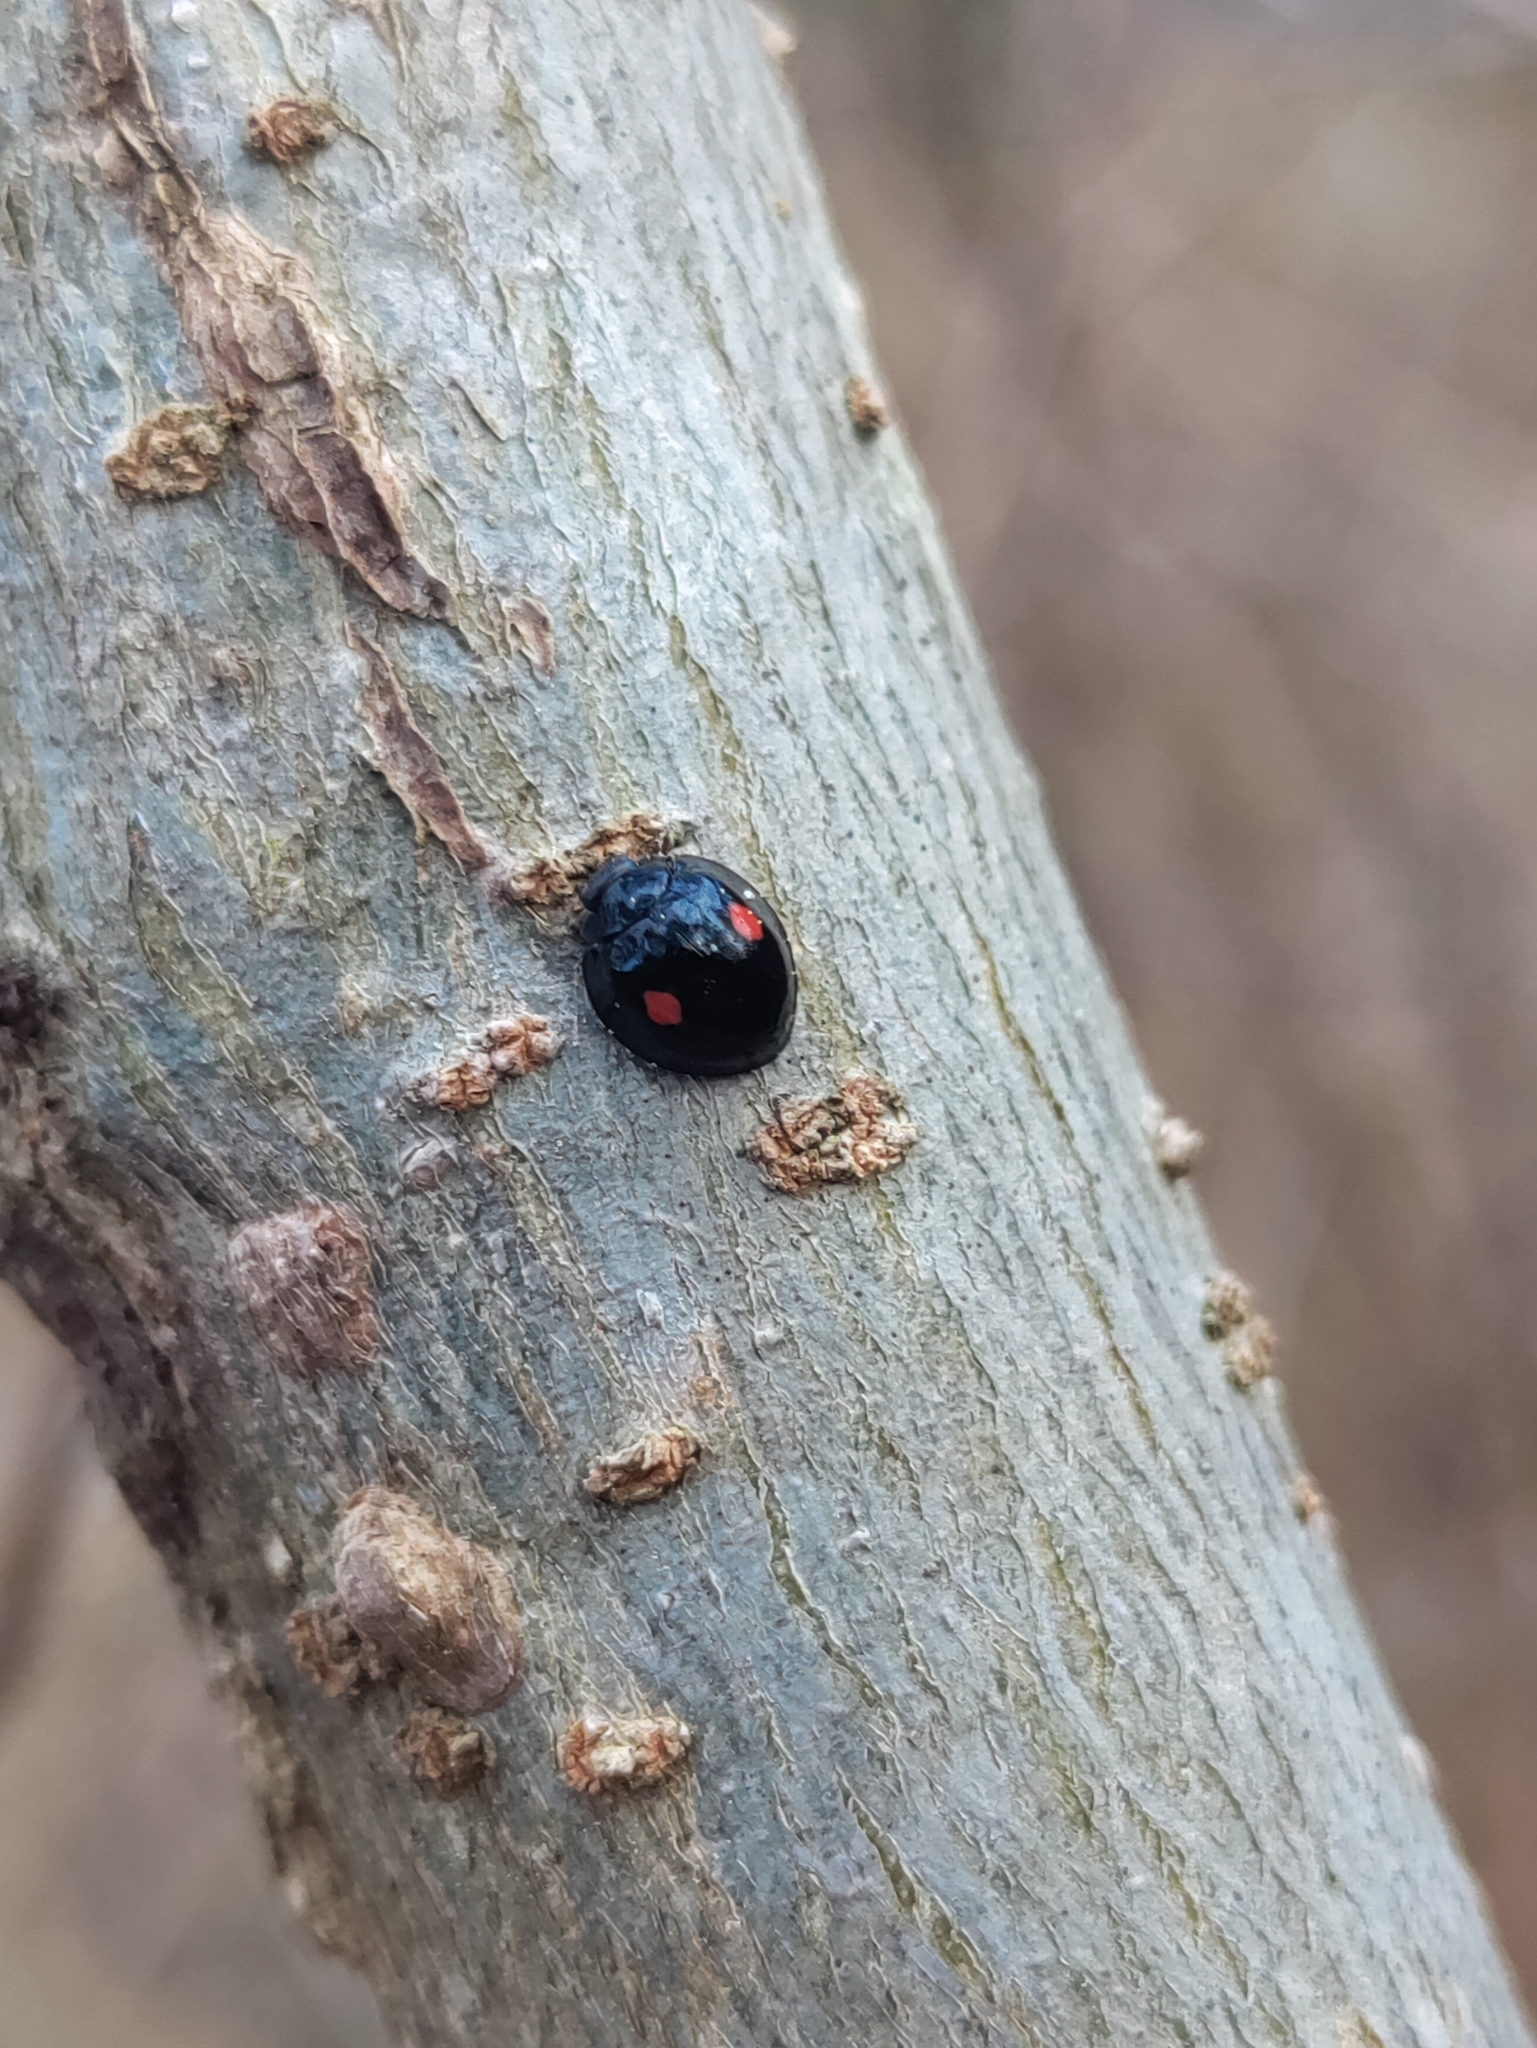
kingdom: Animalia
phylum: Arthropoda
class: Insecta
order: Coleoptera
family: Coccinellidae
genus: Chilocorus
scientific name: Chilocorus stigma
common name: Twicestabbed lady beetle
